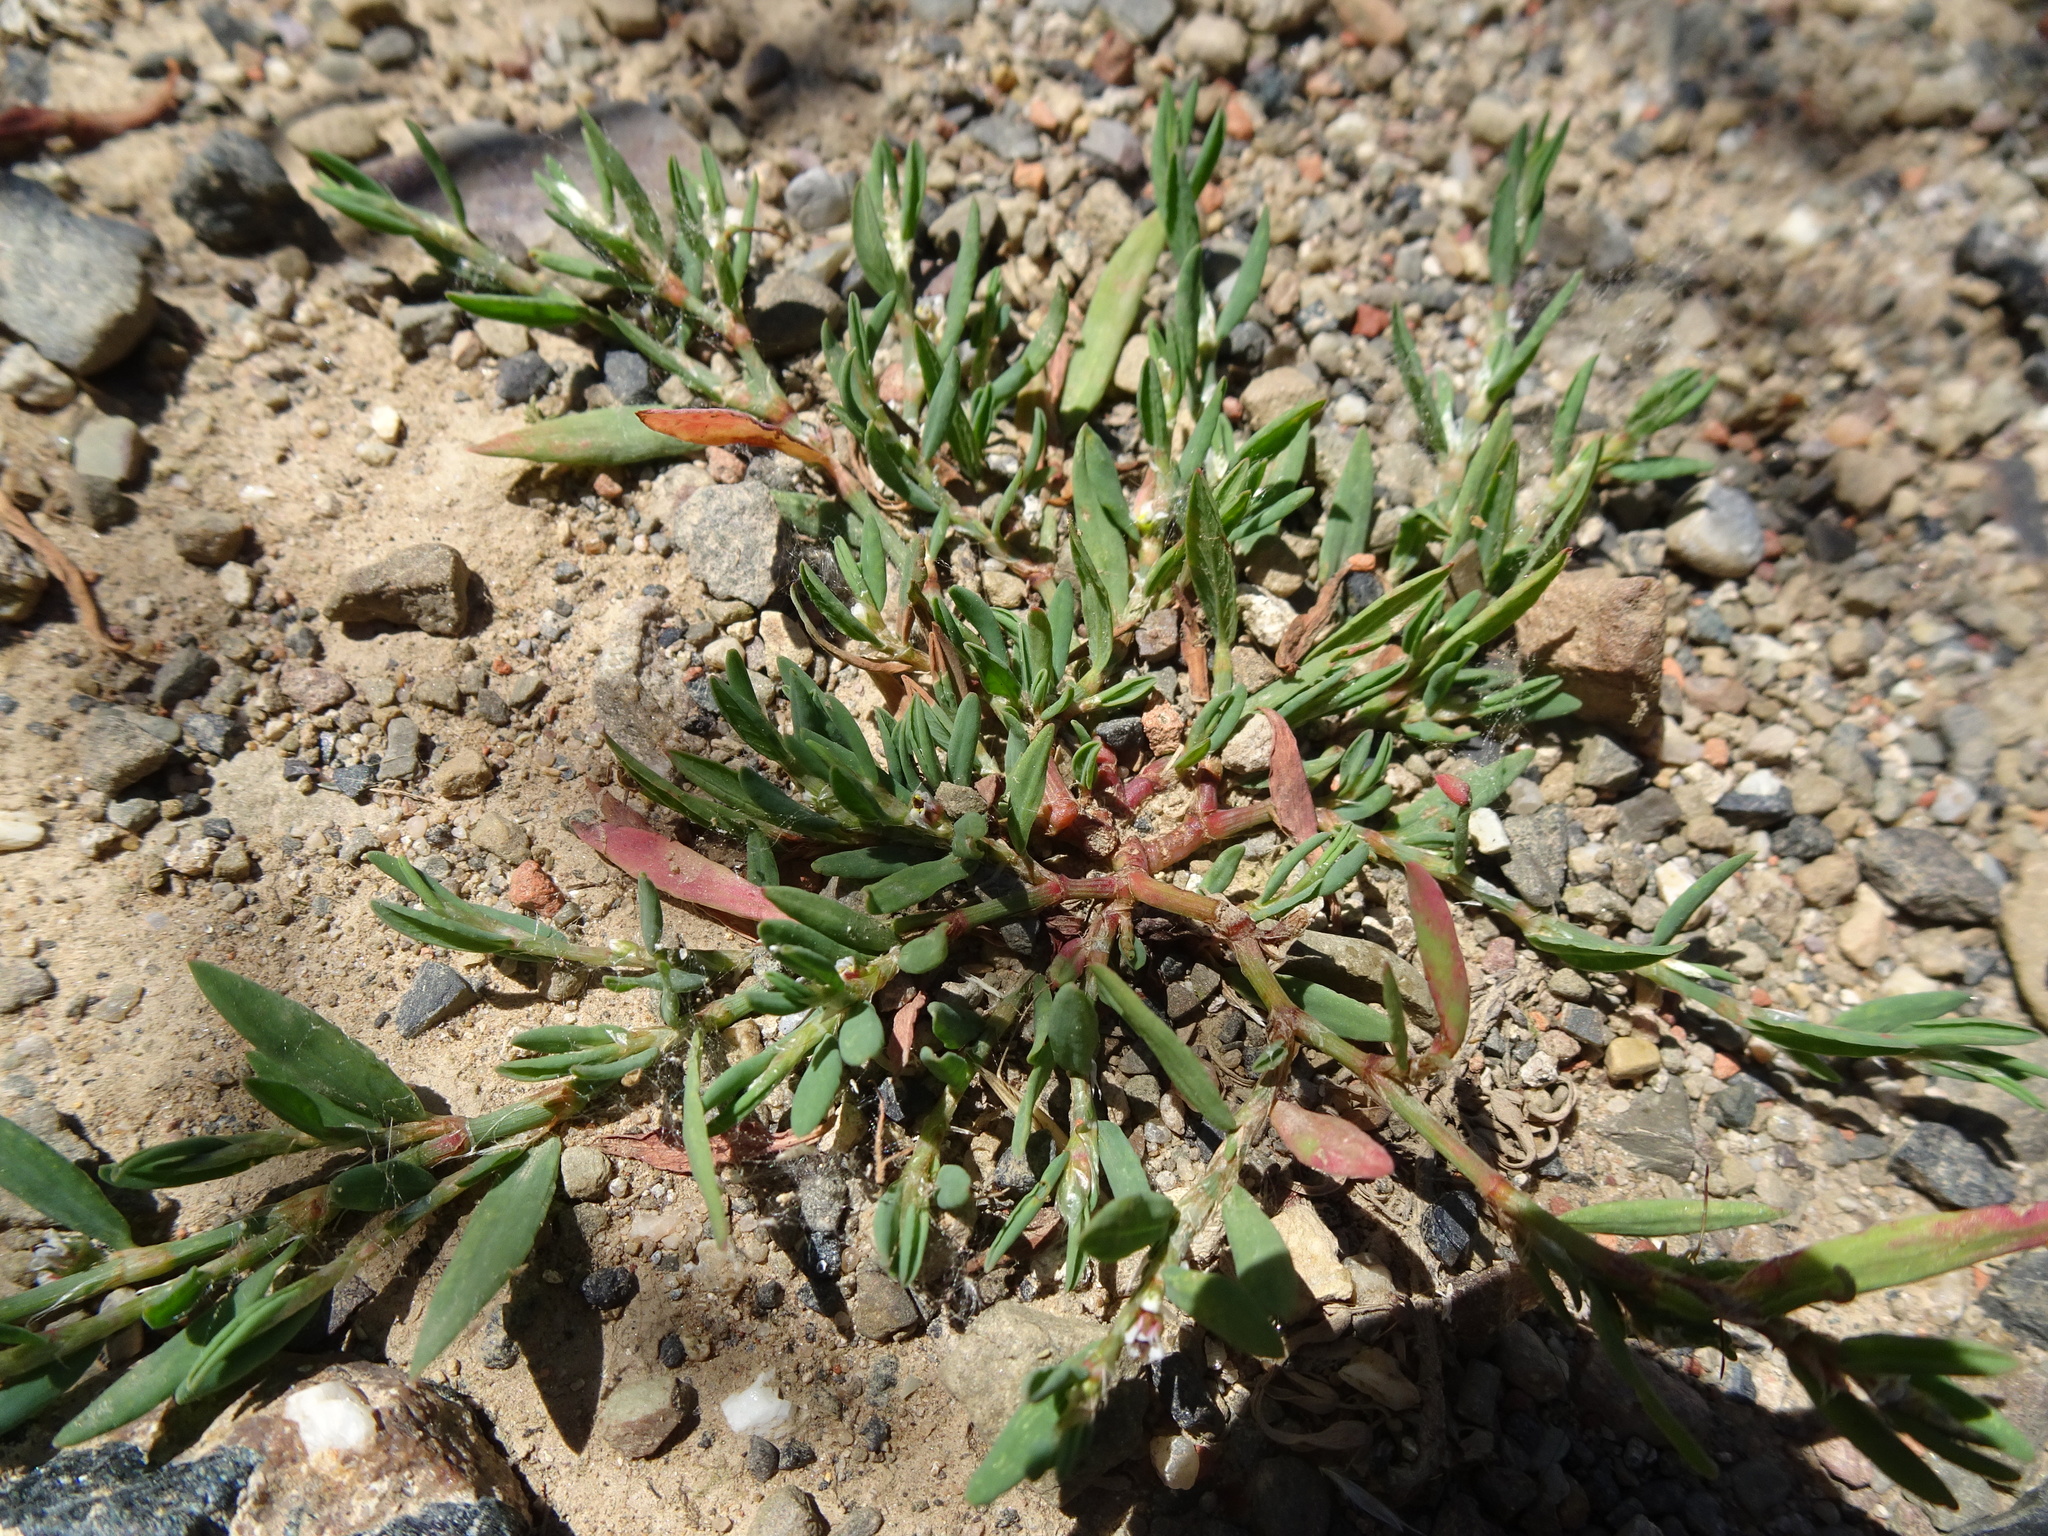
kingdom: Plantae
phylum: Tracheophyta
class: Magnoliopsida
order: Caryophyllales
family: Polygonaceae
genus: Polygonum
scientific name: Polygonum aviculare
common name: Prostrate knotweed
